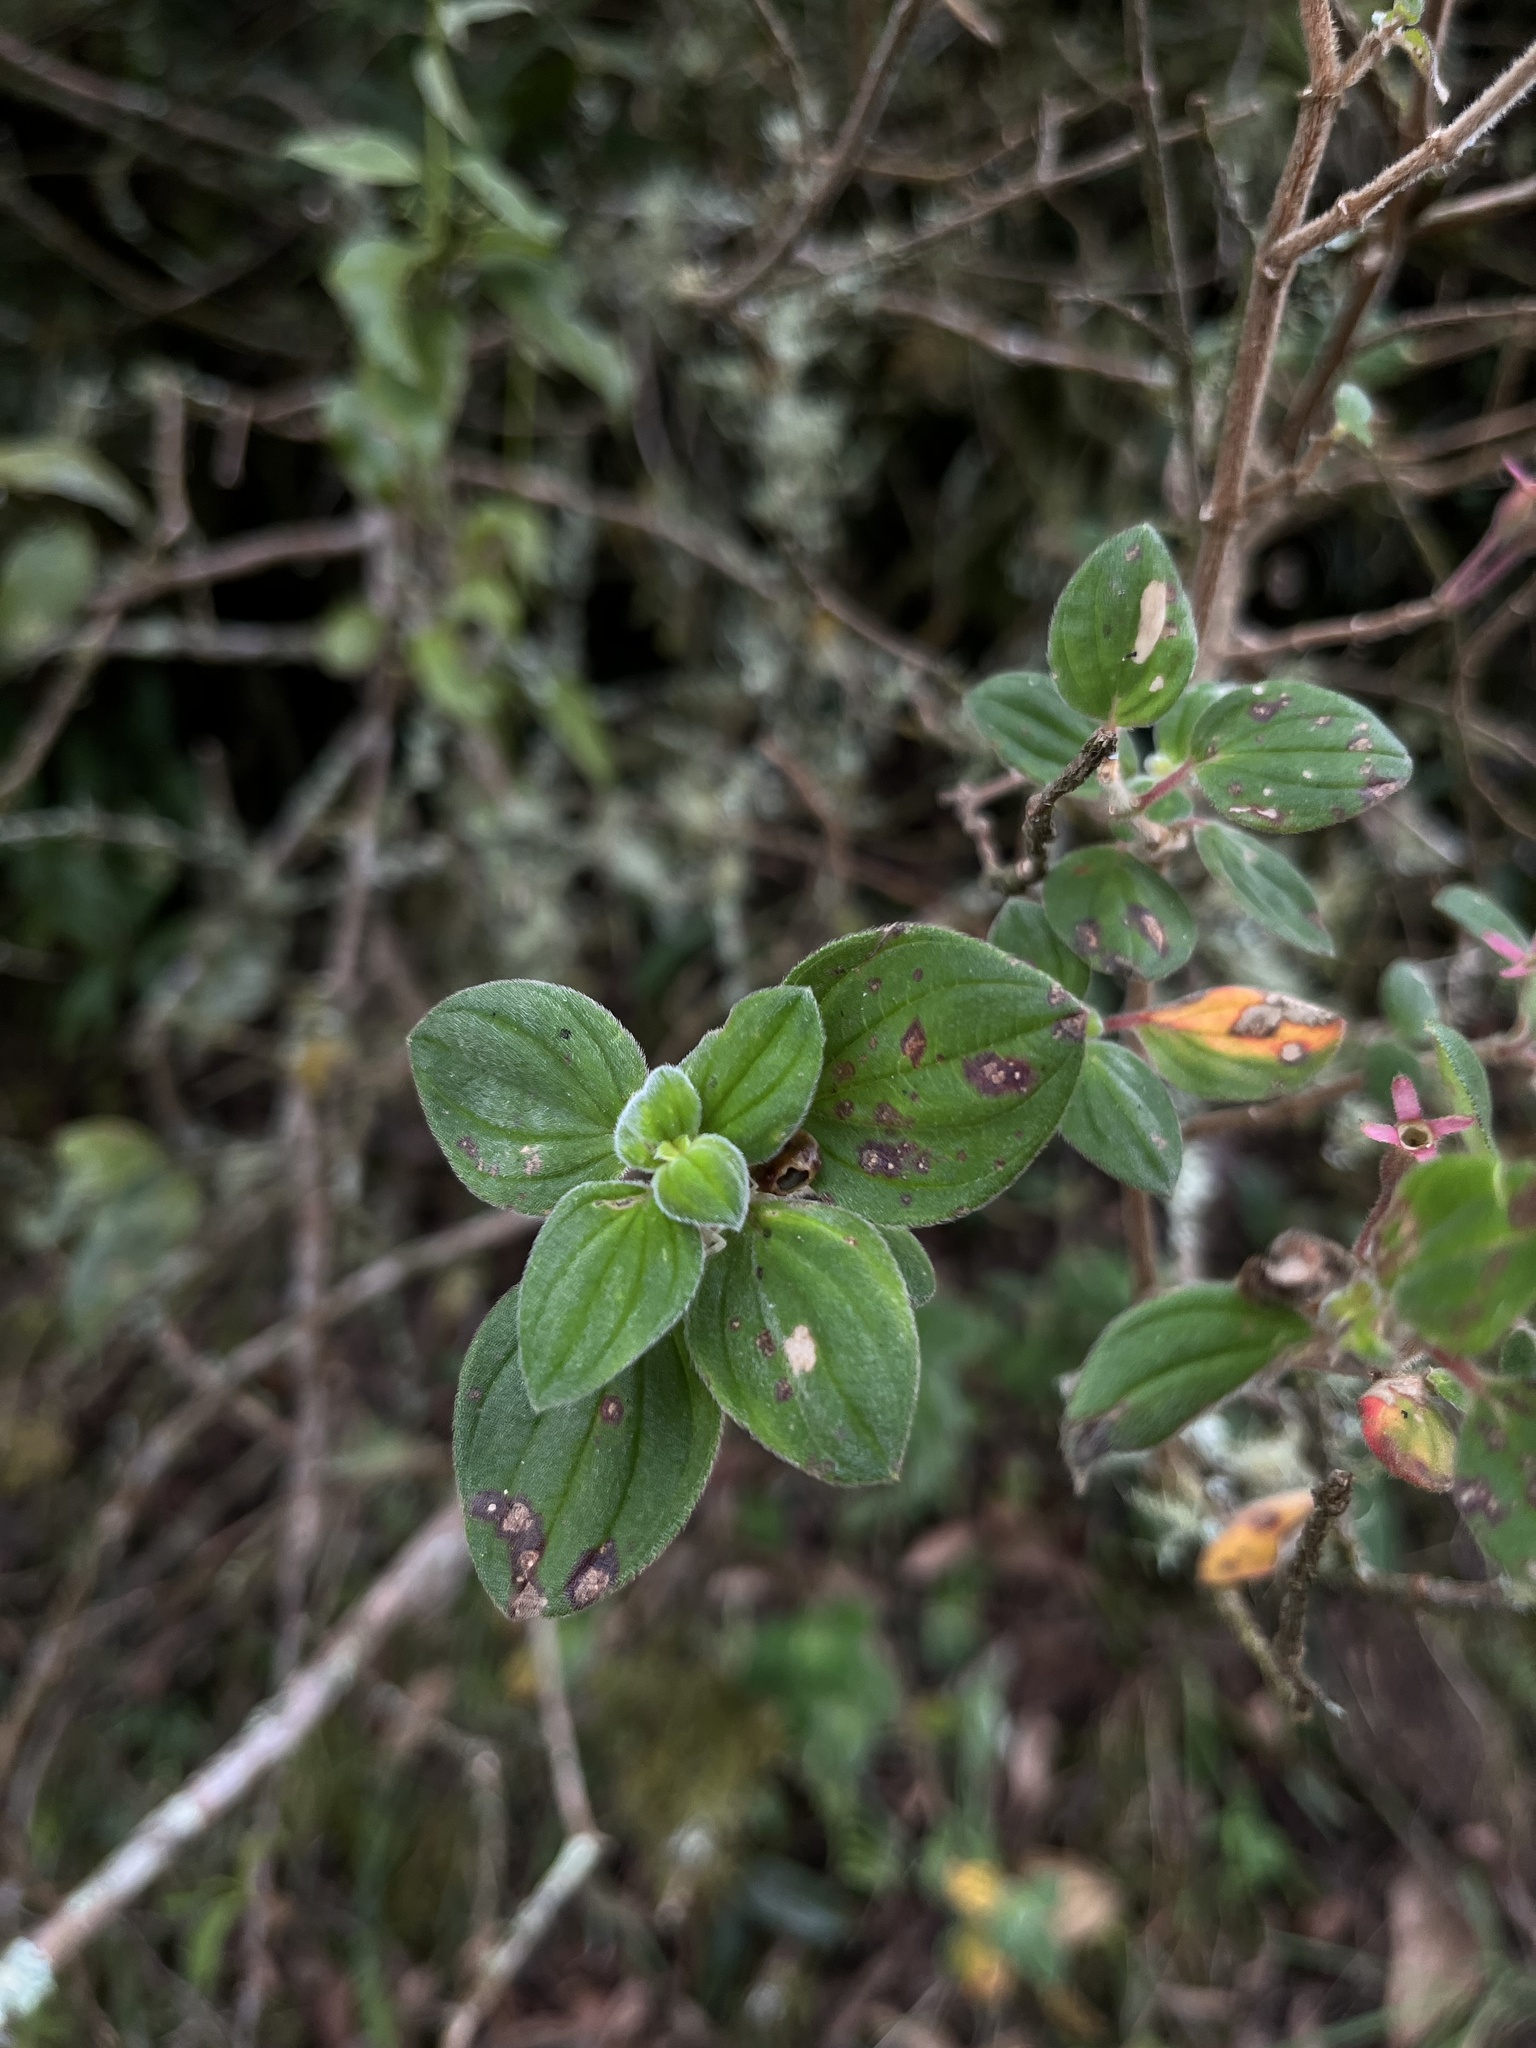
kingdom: Plantae
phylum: Tracheophyta
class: Magnoliopsida
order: Myrtales
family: Melastomataceae
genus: Monochaetum
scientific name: Monochaetum bonplandii
